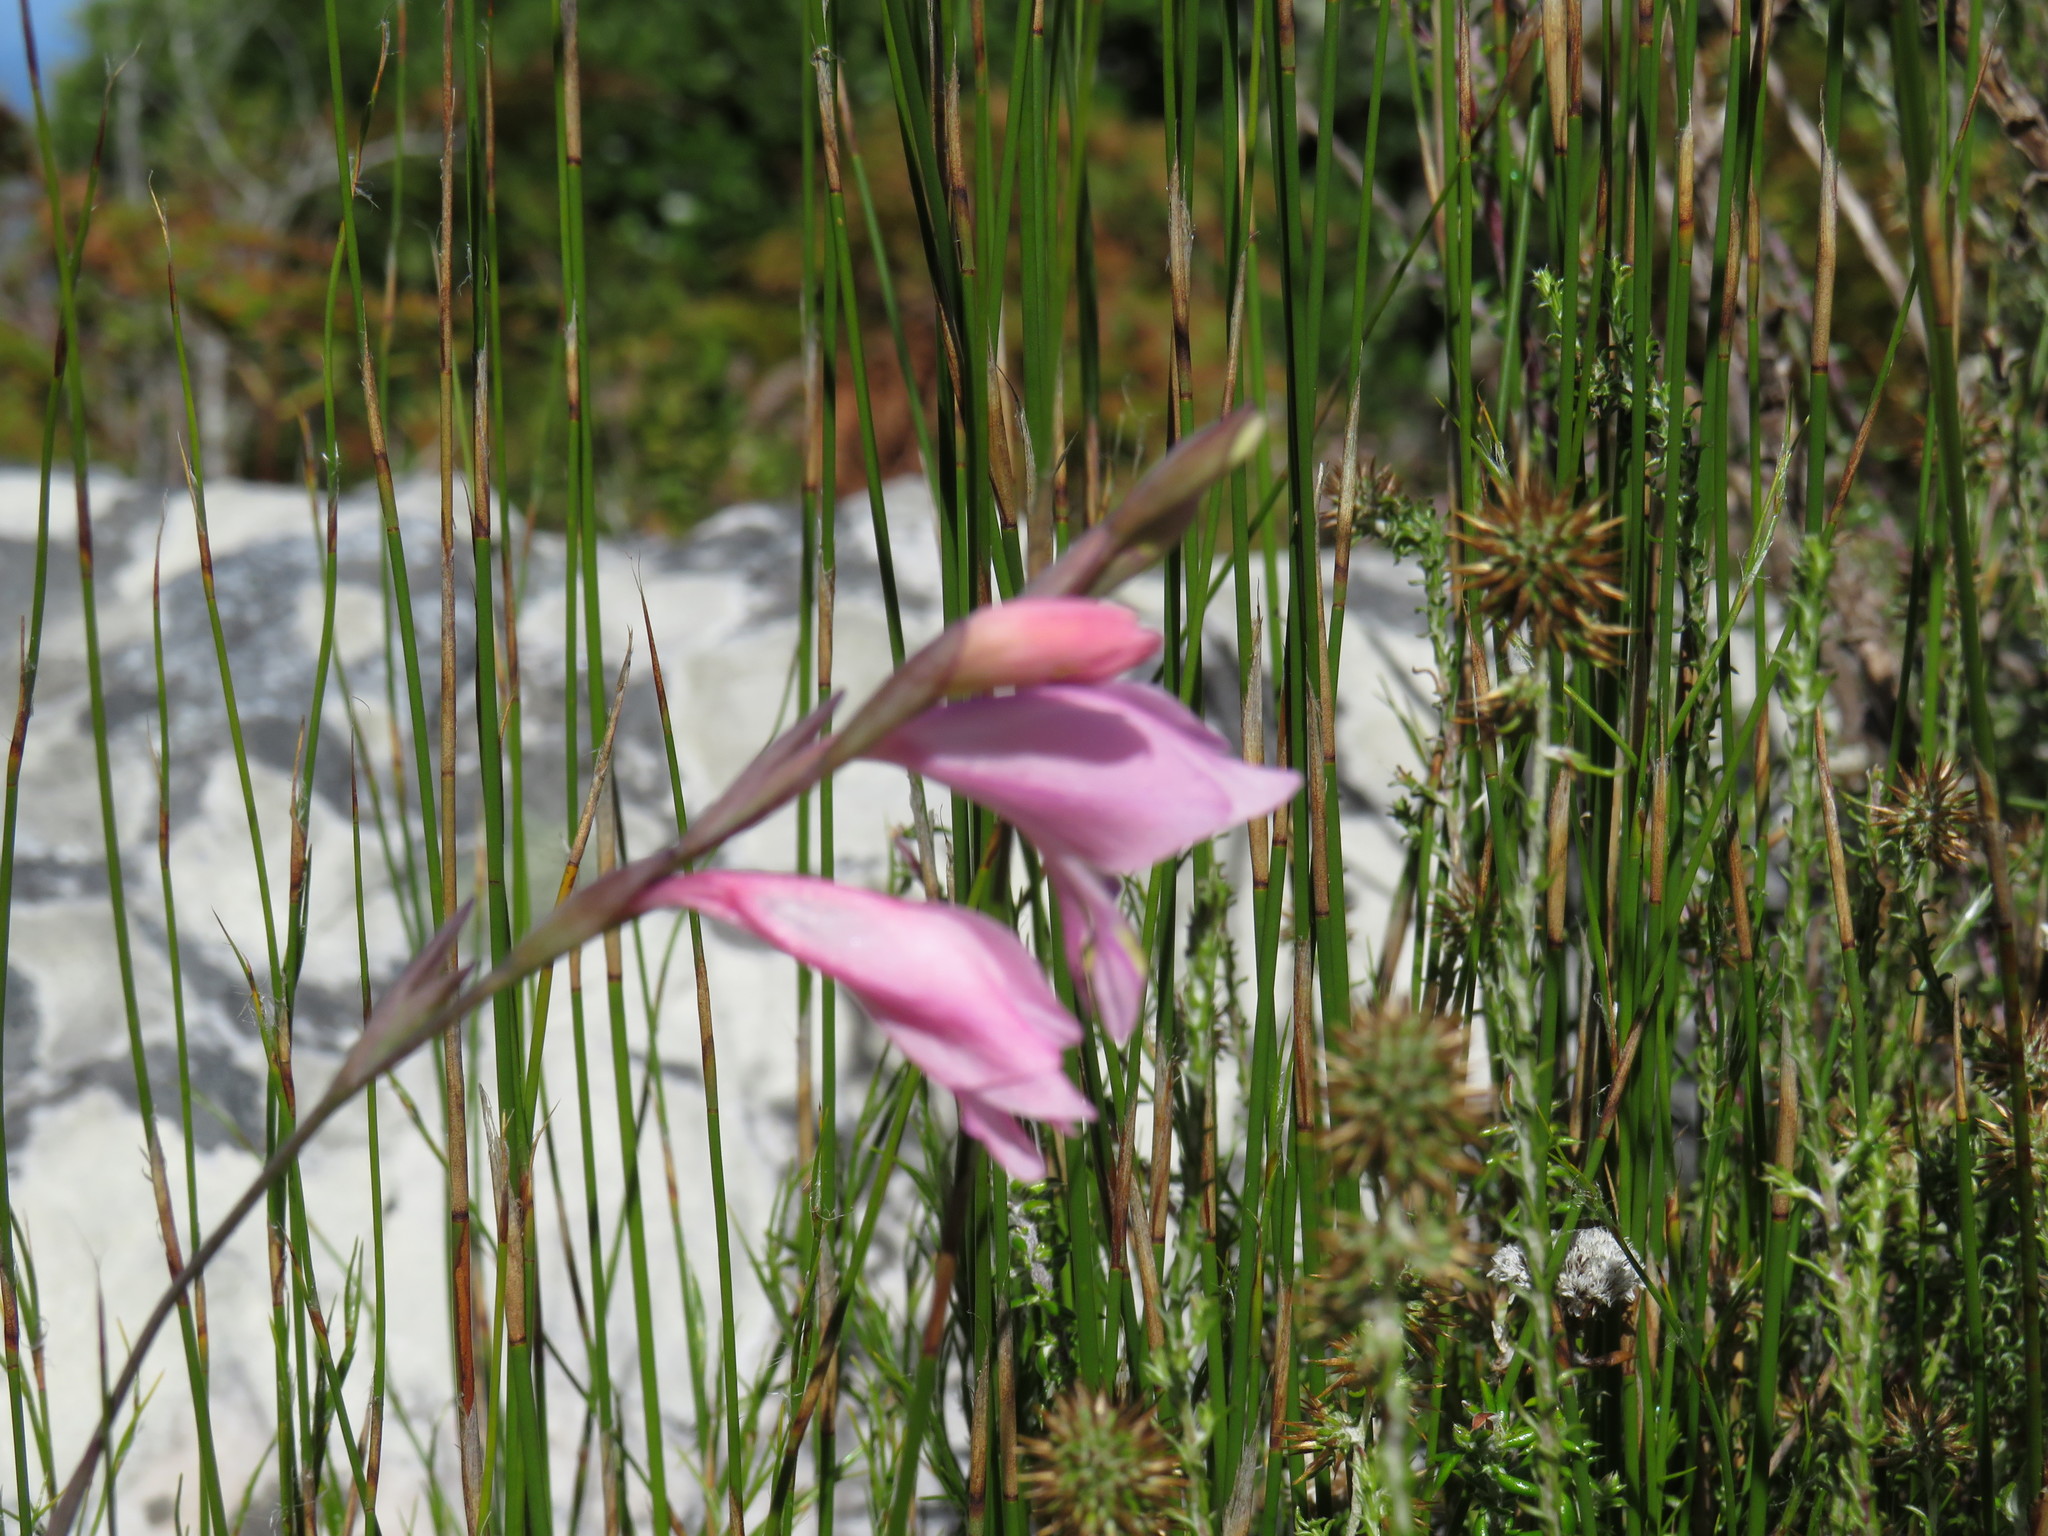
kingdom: Plantae
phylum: Tracheophyta
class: Liliopsida
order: Asparagales
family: Iridaceae
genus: Gladiolus
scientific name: Gladiolus brevifolius
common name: March pypie
